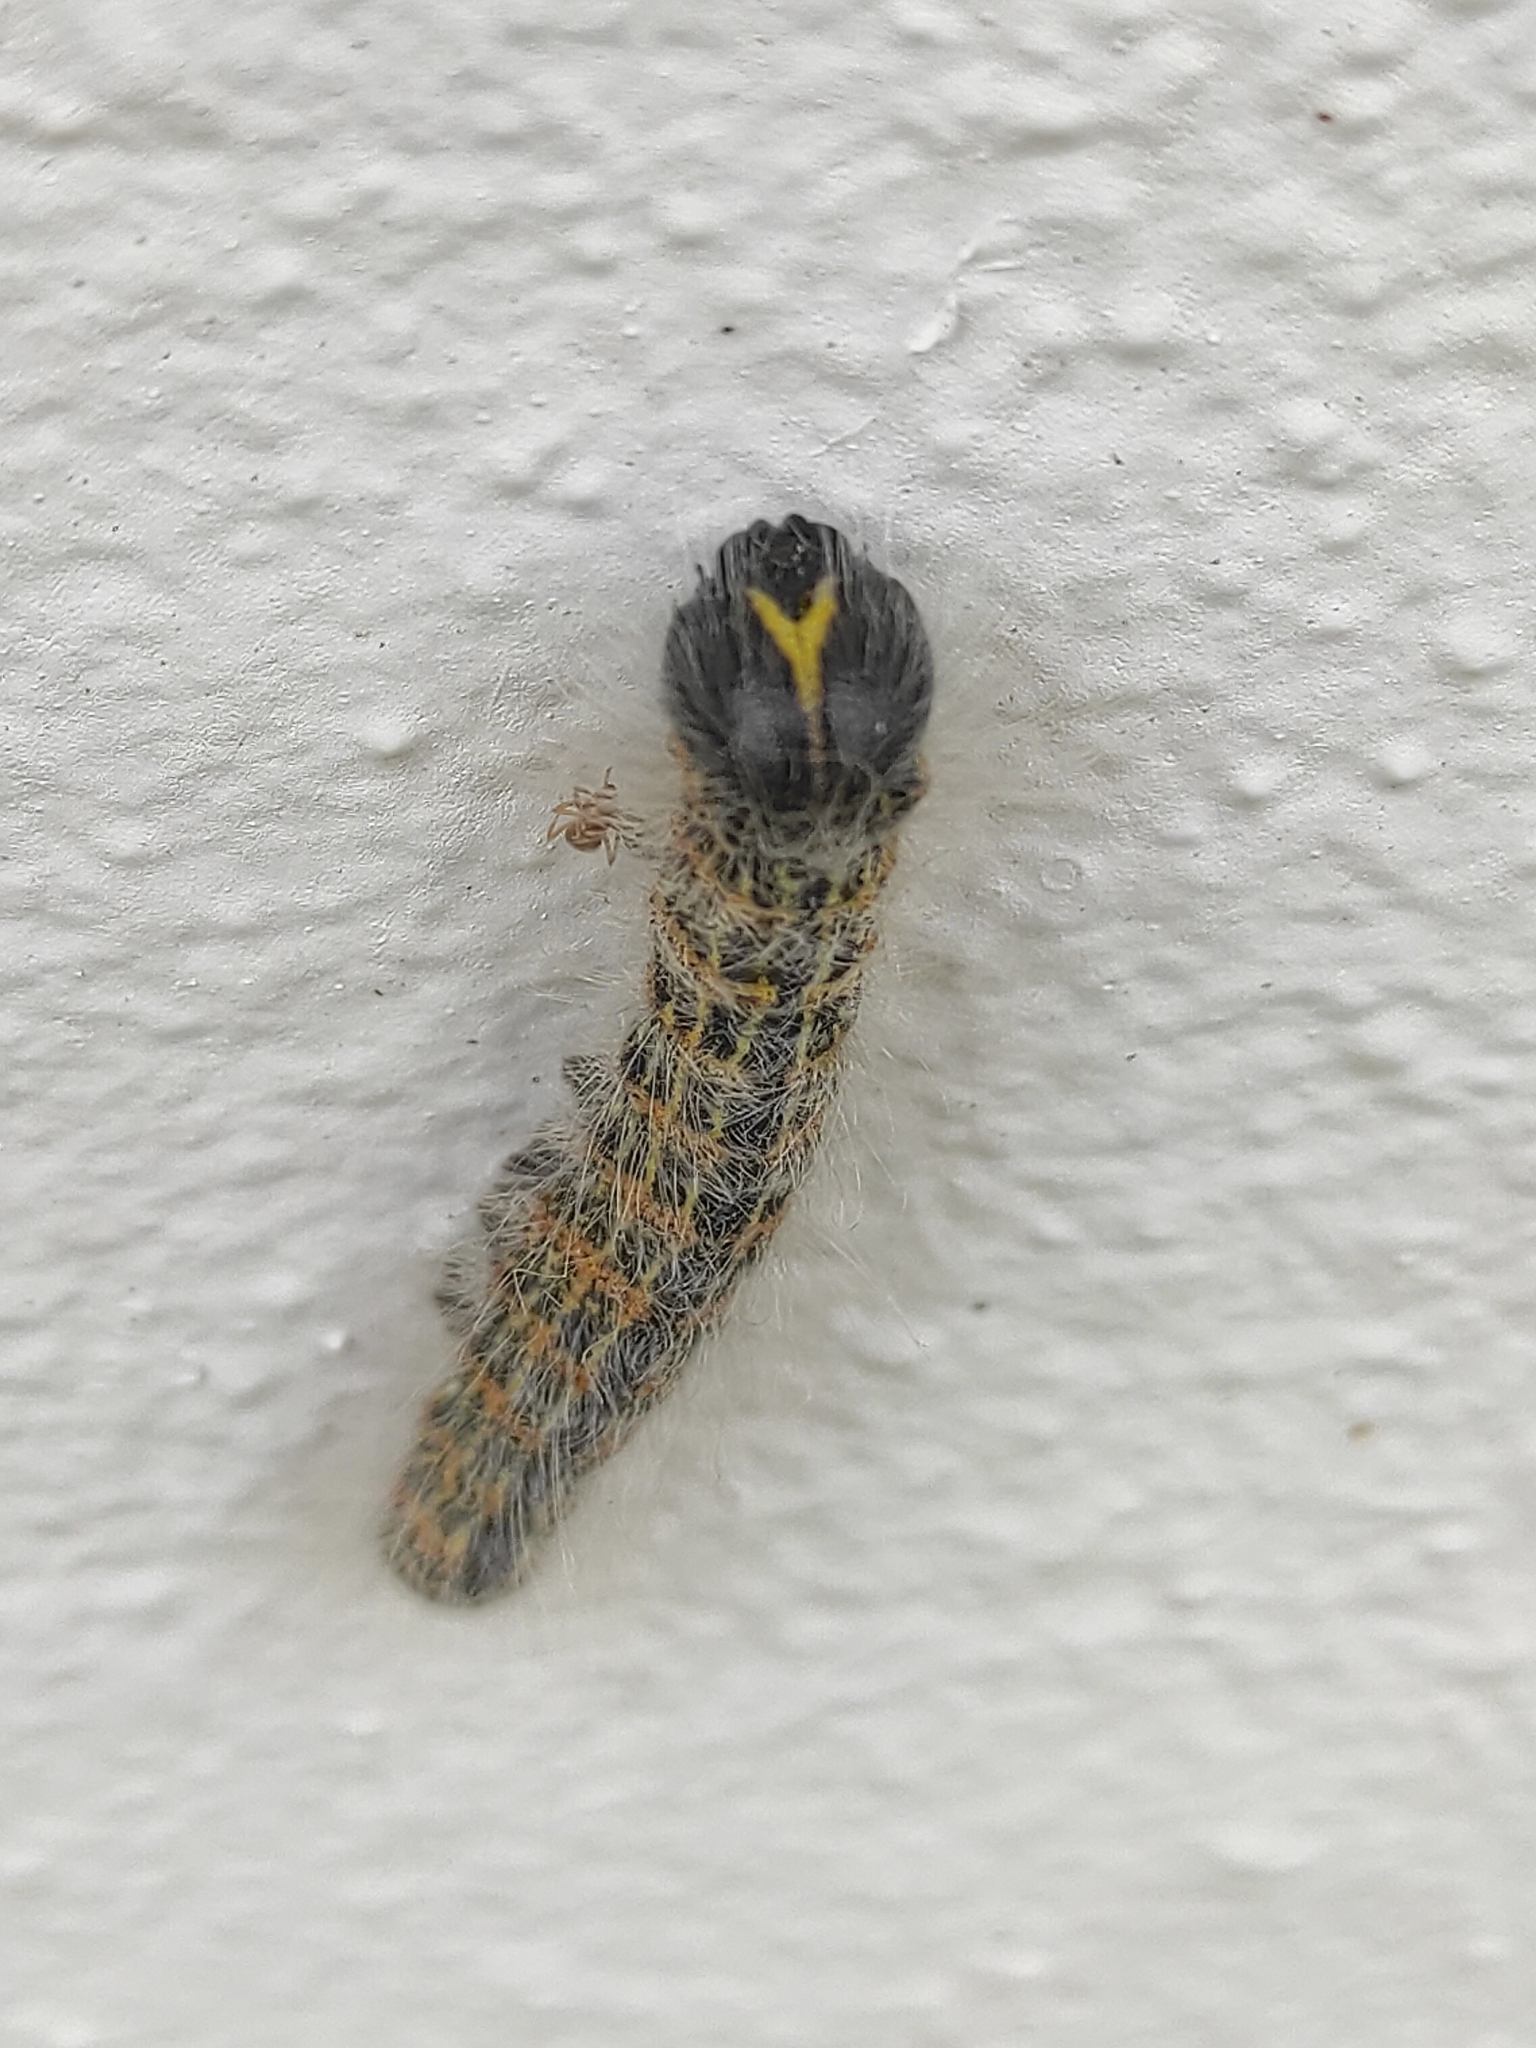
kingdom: Animalia
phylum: Arthropoda
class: Insecta
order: Lepidoptera
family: Notodontidae
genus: Phalera
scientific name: Phalera bucephala
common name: Buff-tip
